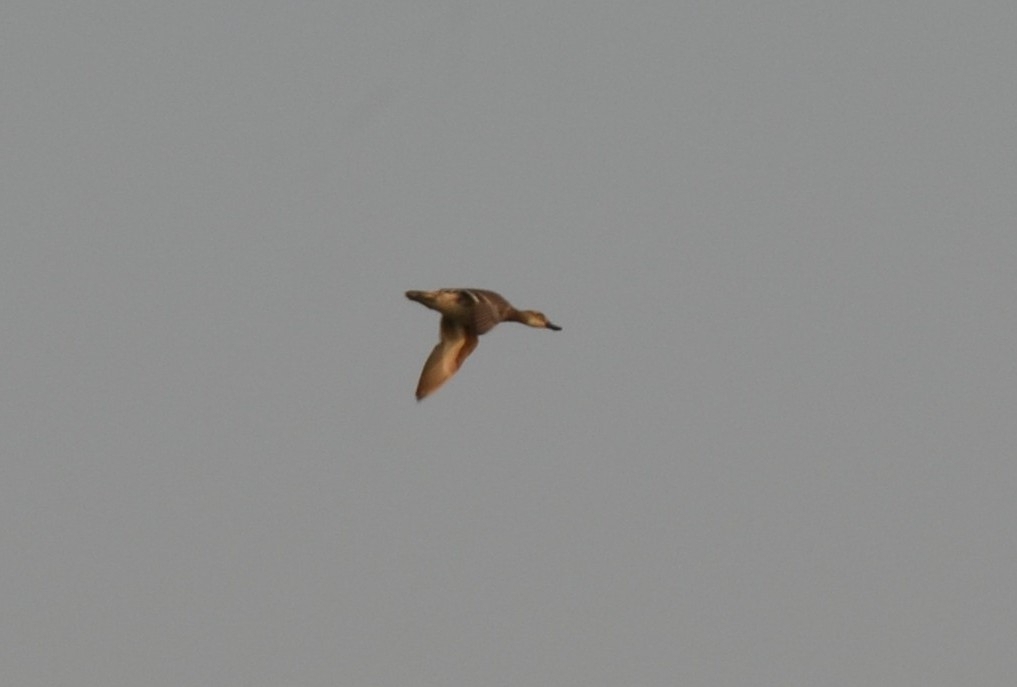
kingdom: Animalia
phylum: Chordata
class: Aves
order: Anseriformes
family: Anatidae
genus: Spatula
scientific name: Spatula querquedula
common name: Garganey
